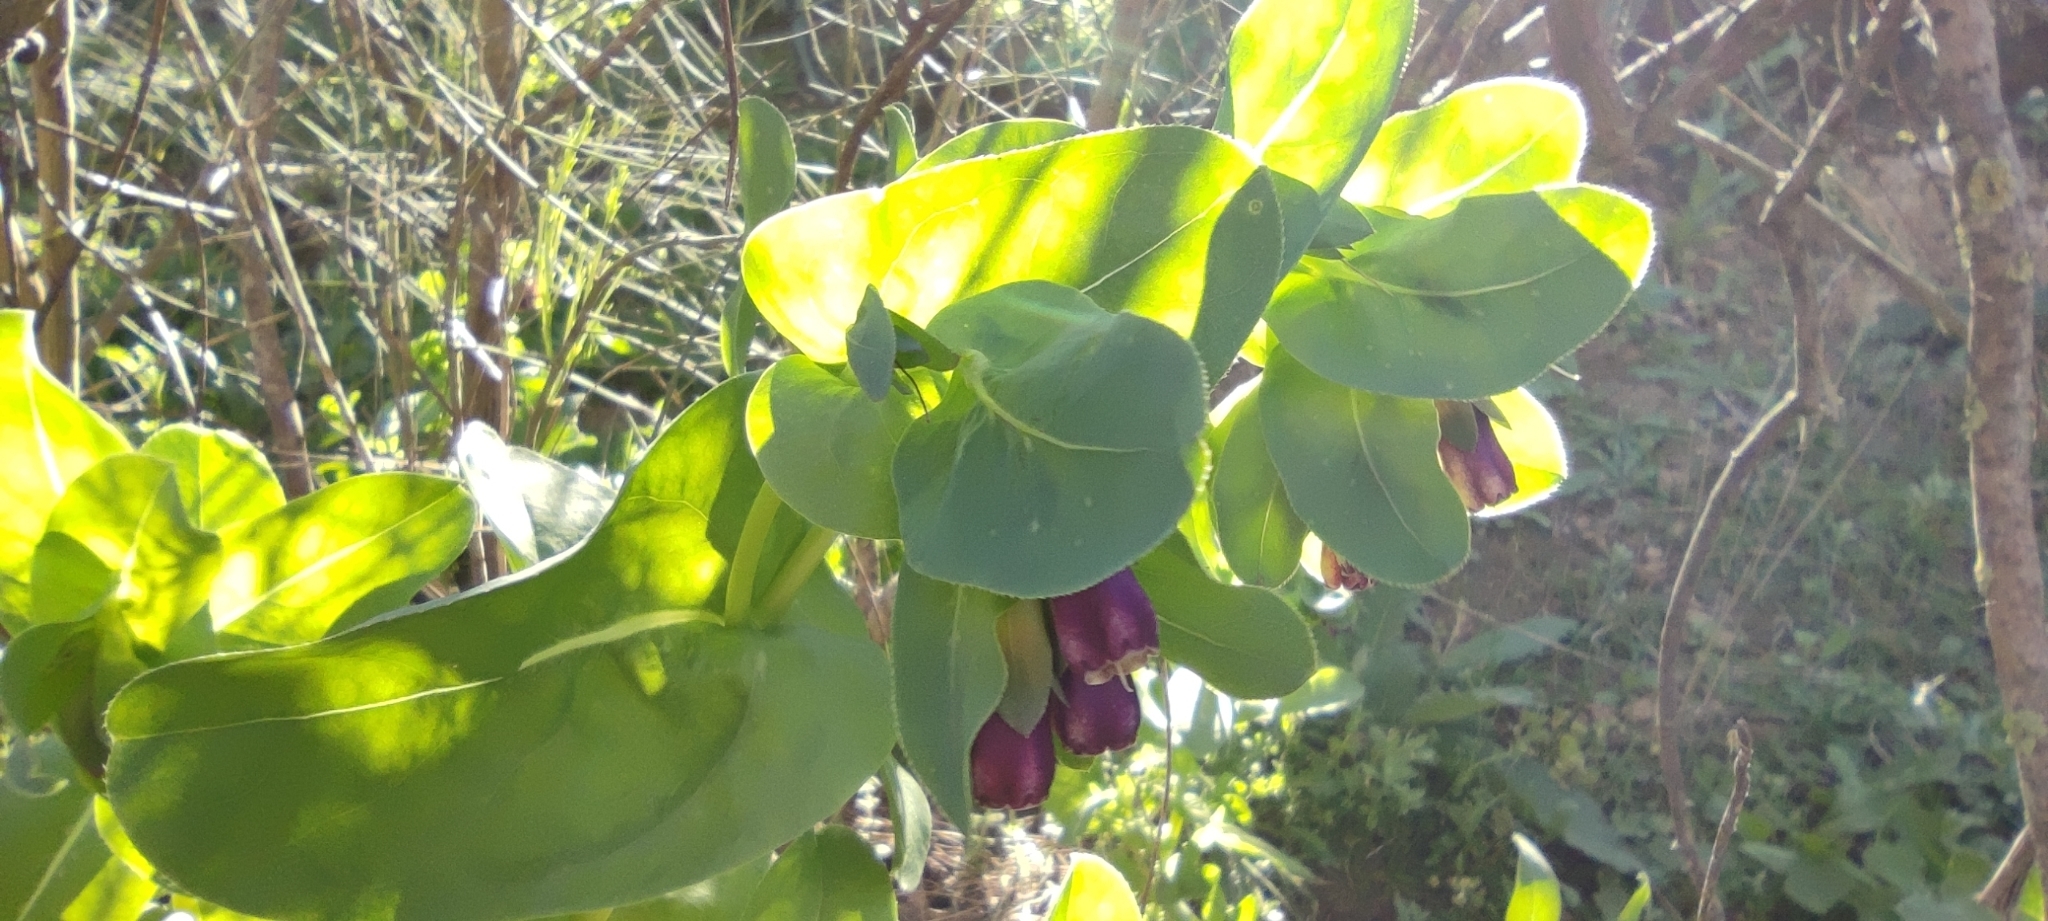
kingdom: Plantae
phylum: Tracheophyta
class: Magnoliopsida
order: Boraginales
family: Boraginaceae
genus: Cerinthe
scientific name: Cerinthe major
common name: Greater honeywort
